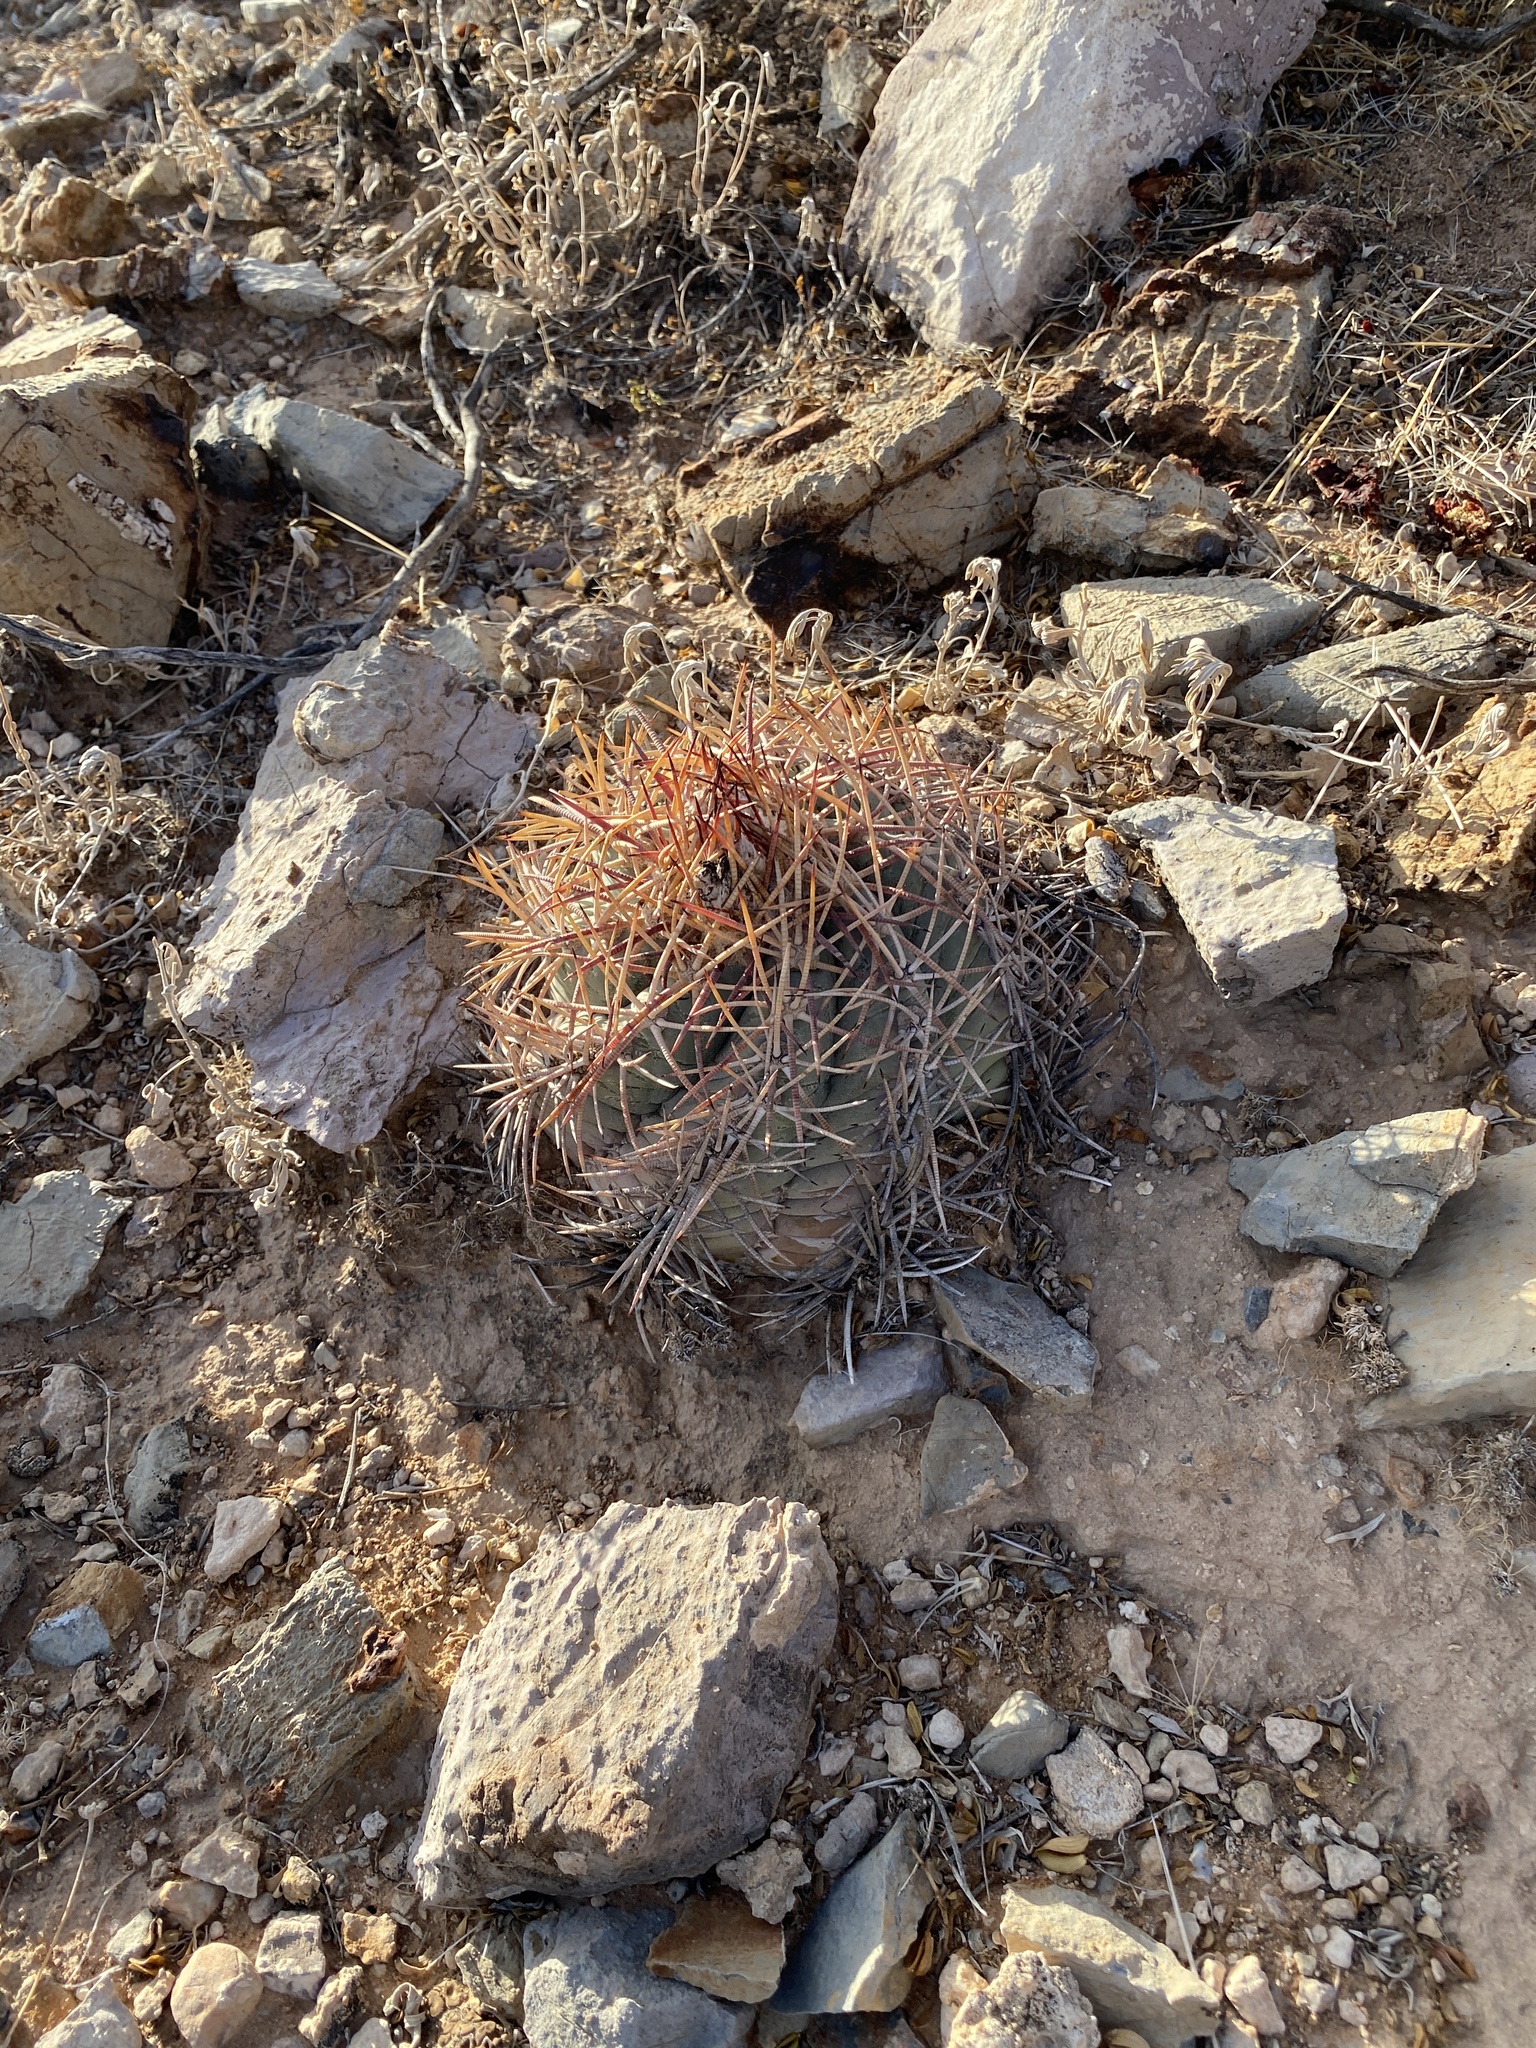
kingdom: Plantae
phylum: Tracheophyta
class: Magnoliopsida
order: Caryophyllales
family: Cactaceae
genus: Echinocactus
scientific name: Echinocactus horizonthalonius
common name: Devilshead
